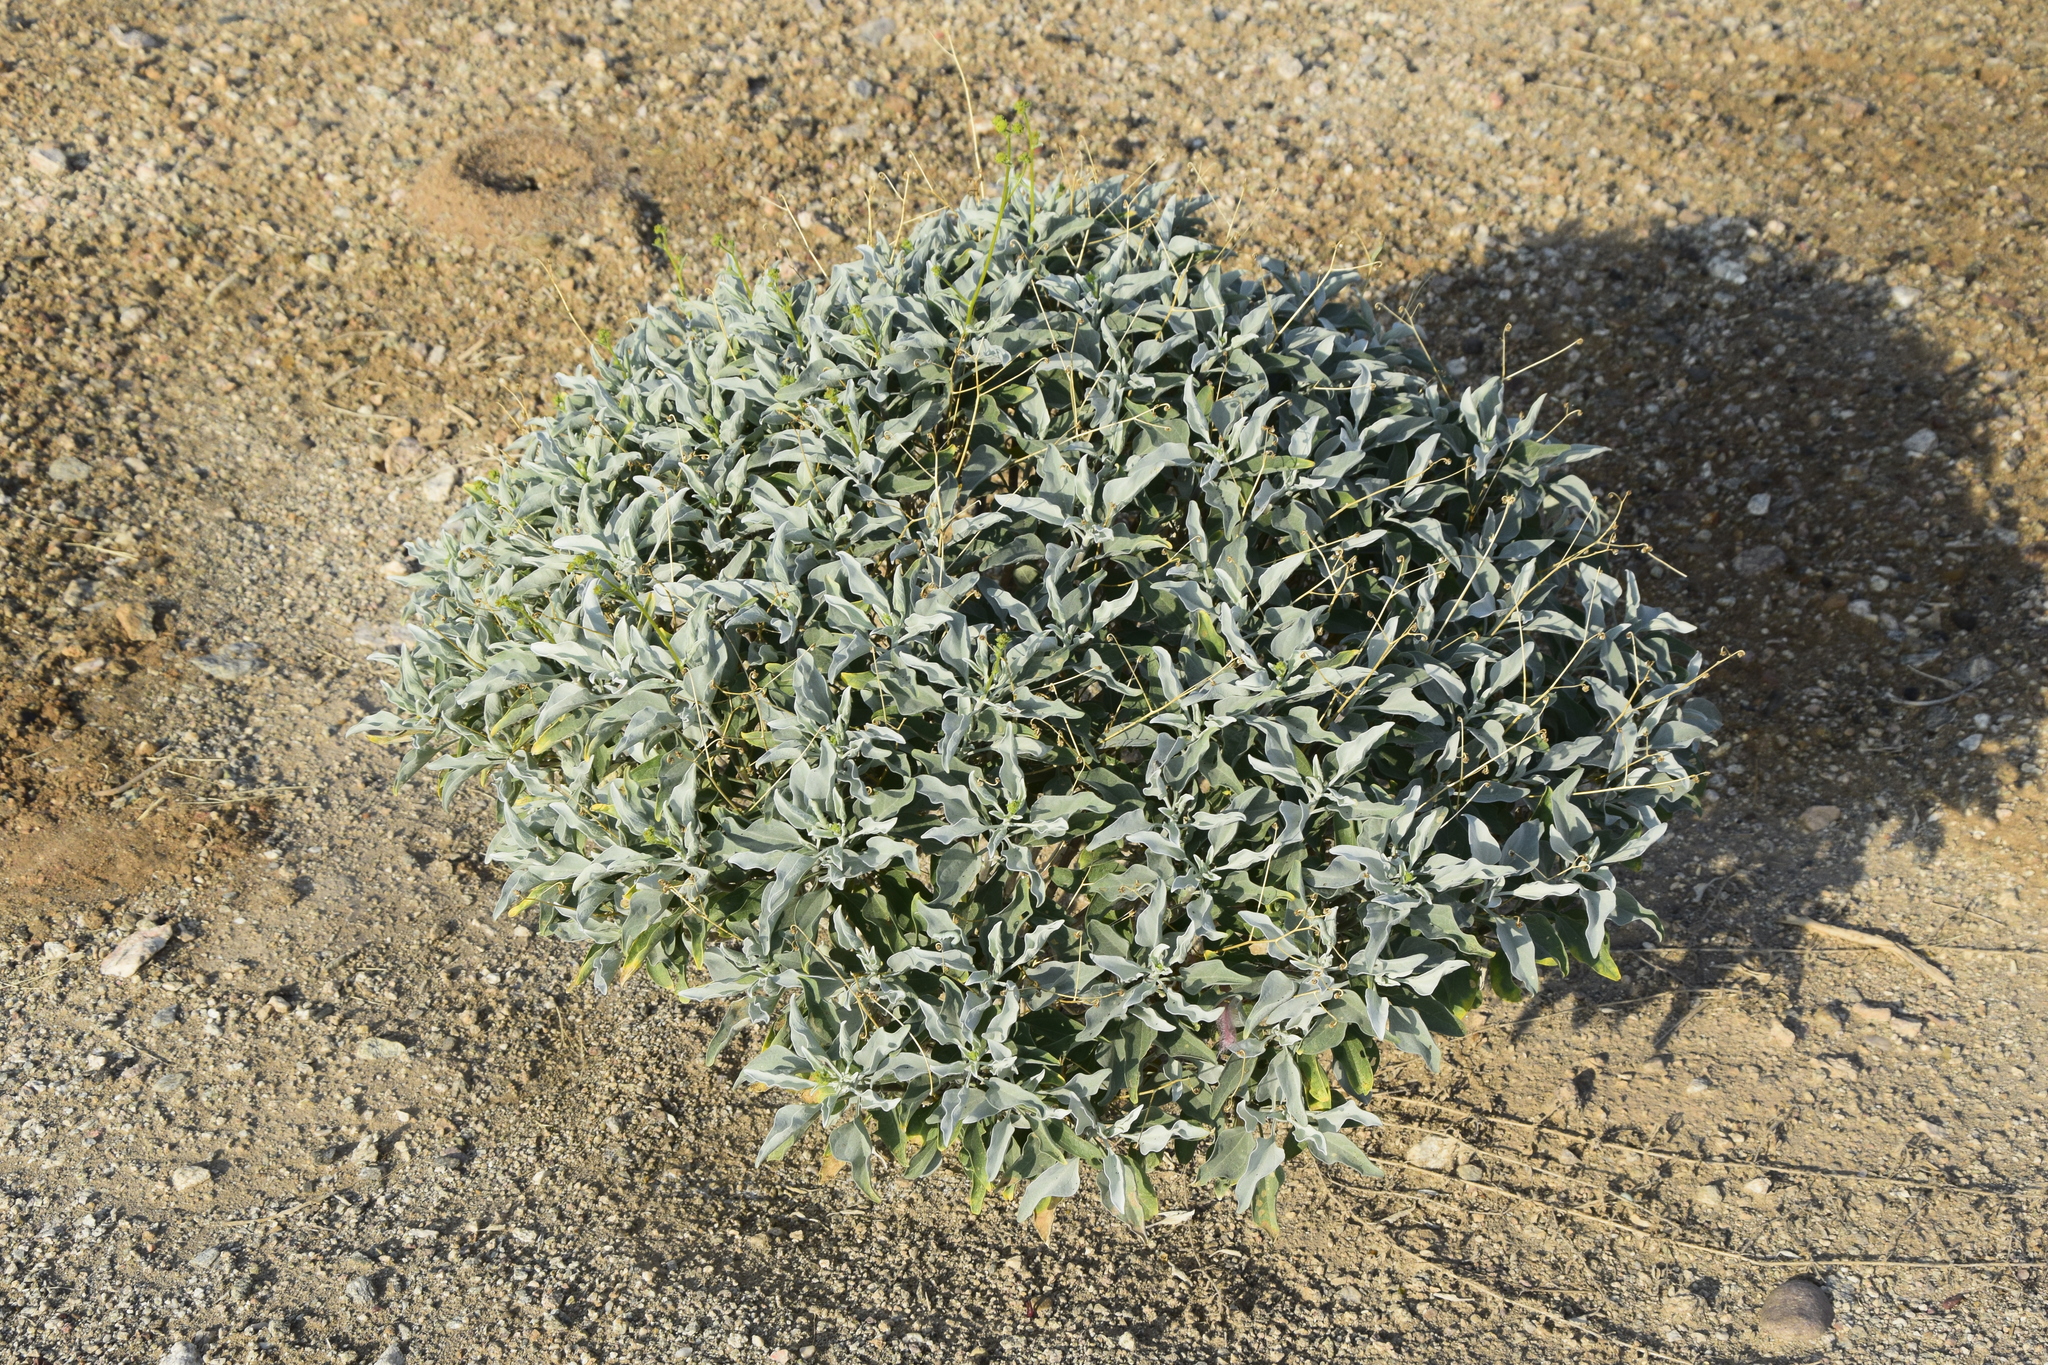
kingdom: Plantae
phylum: Tracheophyta
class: Magnoliopsida
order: Asterales
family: Asteraceae
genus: Encelia
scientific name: Encelia farinosa
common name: Brittlebush
